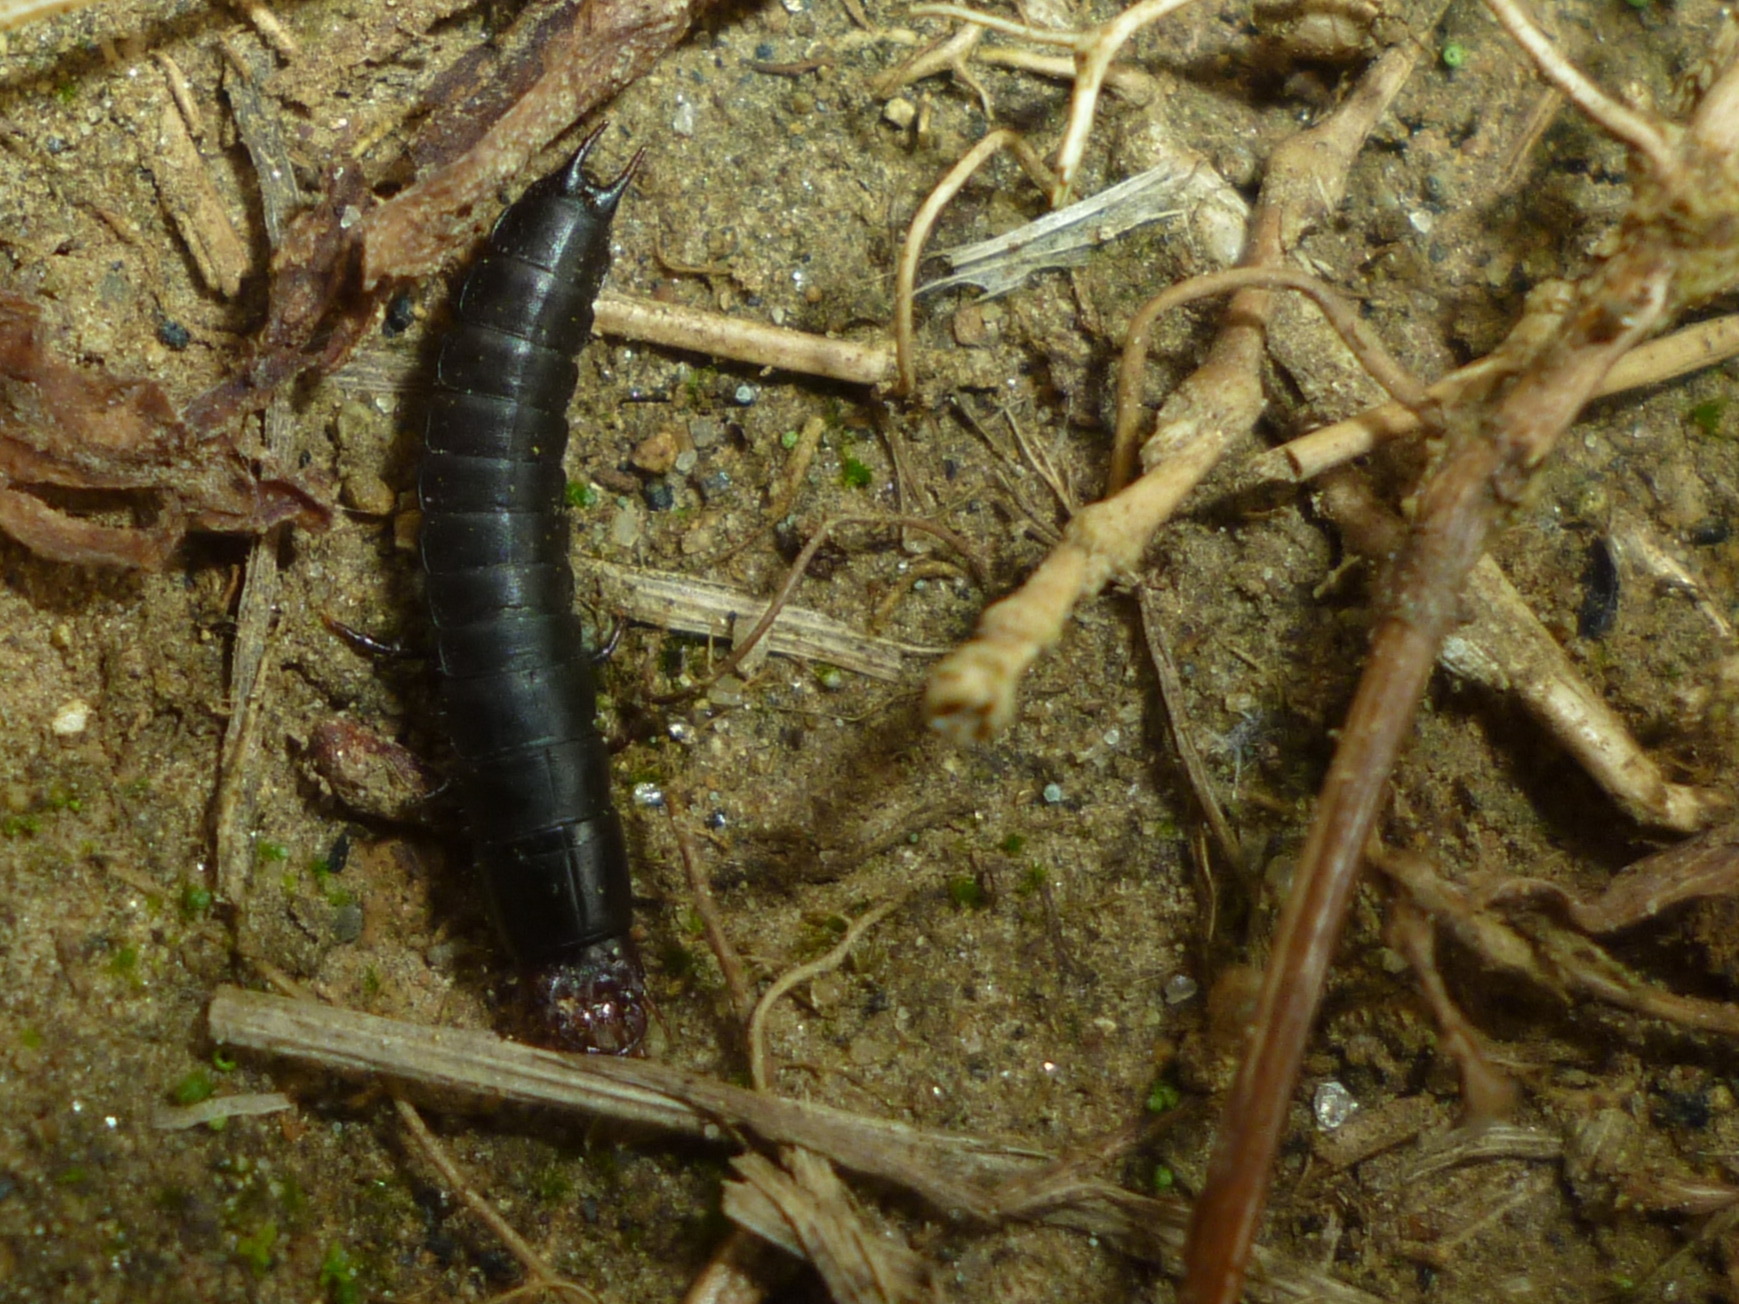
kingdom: Animalia
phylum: Arthropoda
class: Insecta
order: Coleoptera
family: Carabidae
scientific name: Carabidae
